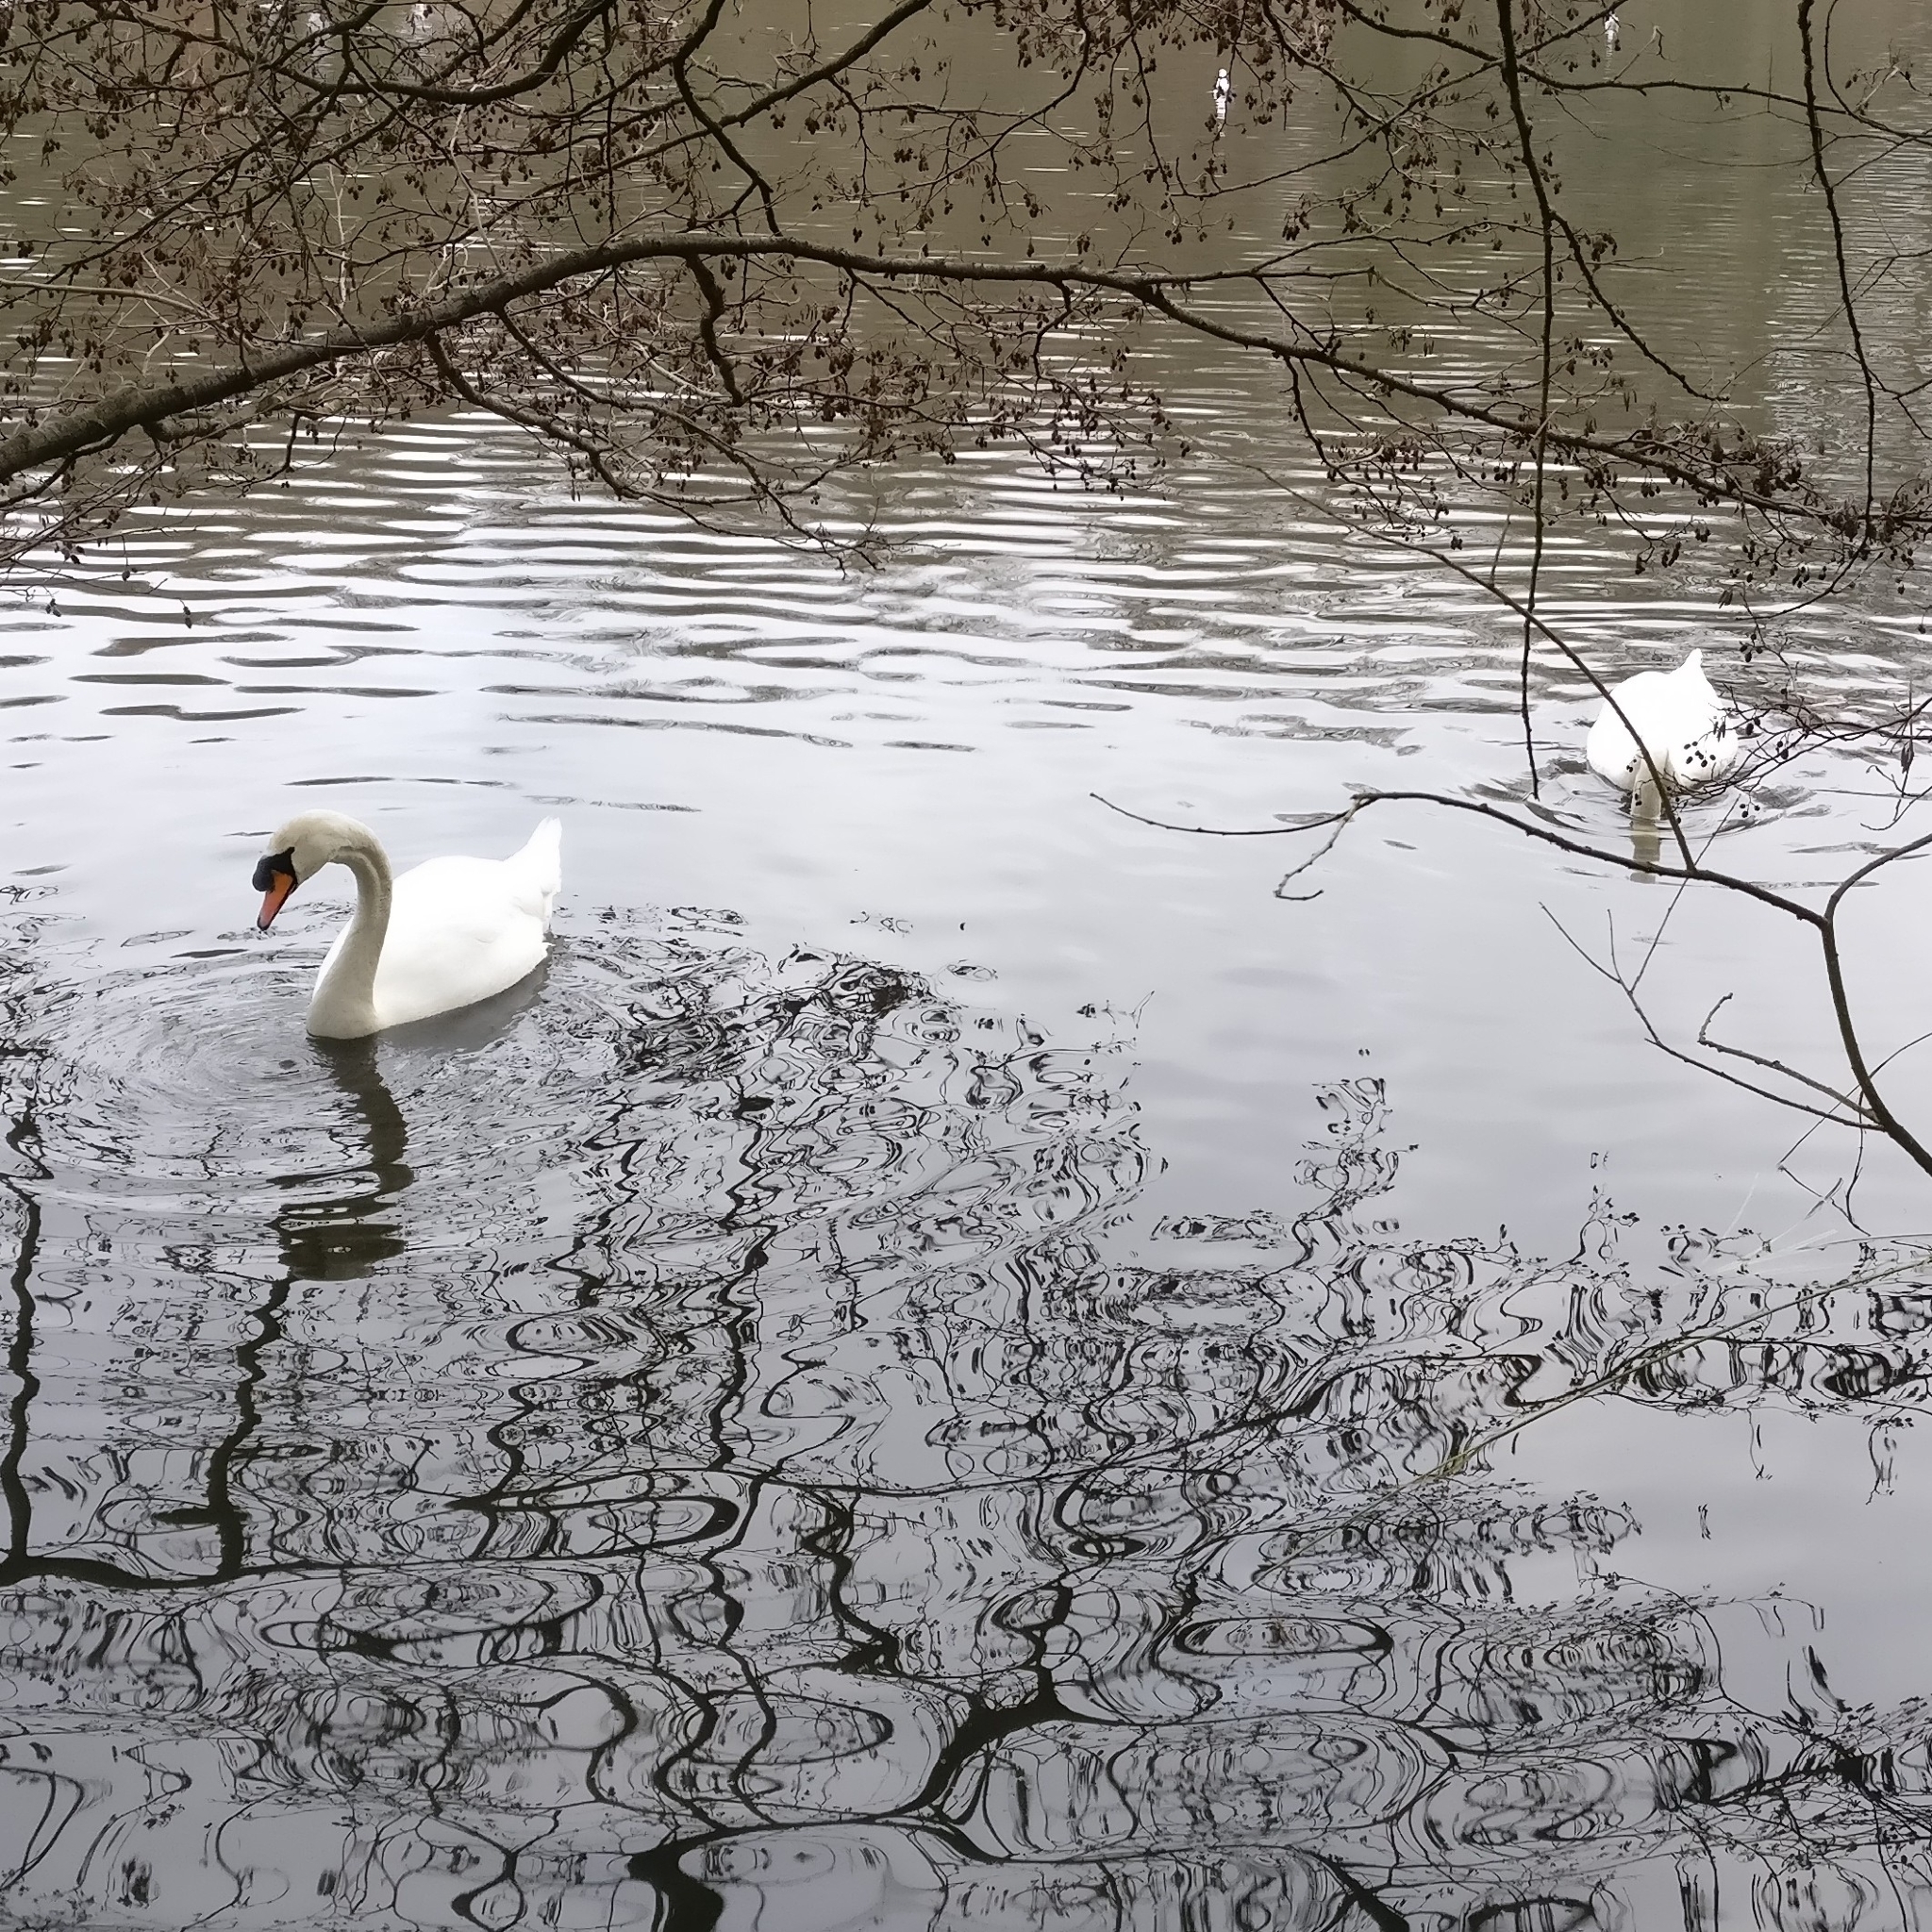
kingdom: Animalia
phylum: Chordata
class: Aves
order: Anseriformes
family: Anatidae
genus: Cygnus
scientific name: Cygnus olor
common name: Mute swan
